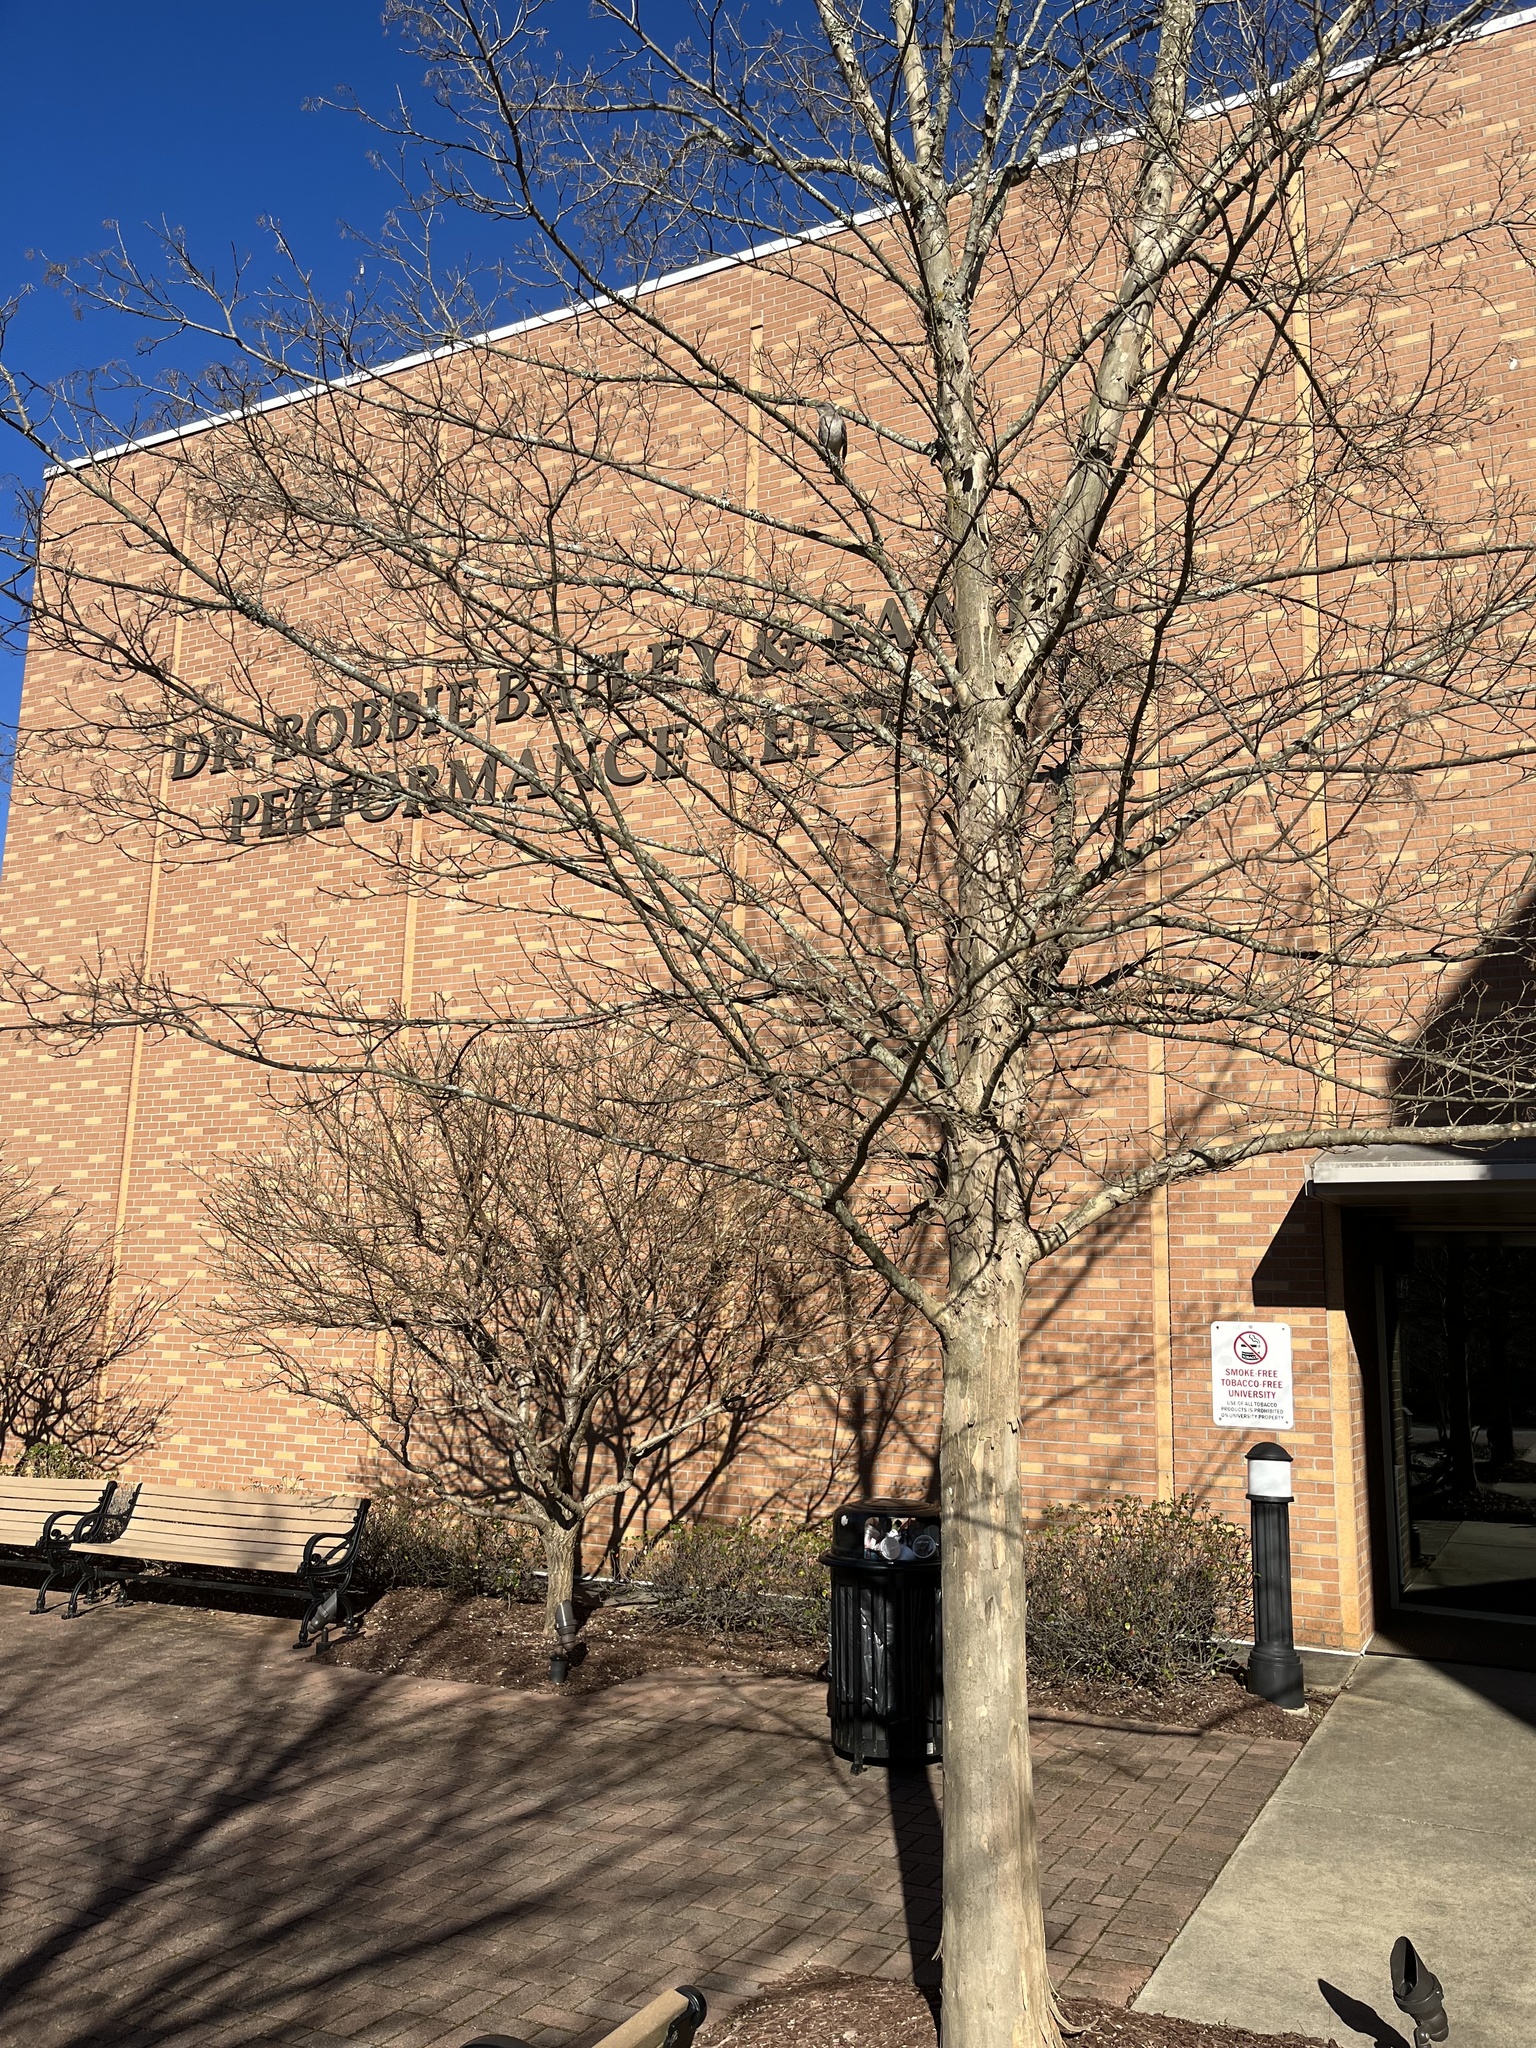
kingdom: Animalia
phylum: Chordata
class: Aves
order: Passeriformes
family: Mimidae
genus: Mimus
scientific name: Mimus polyglottos
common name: Northern mockingbird
